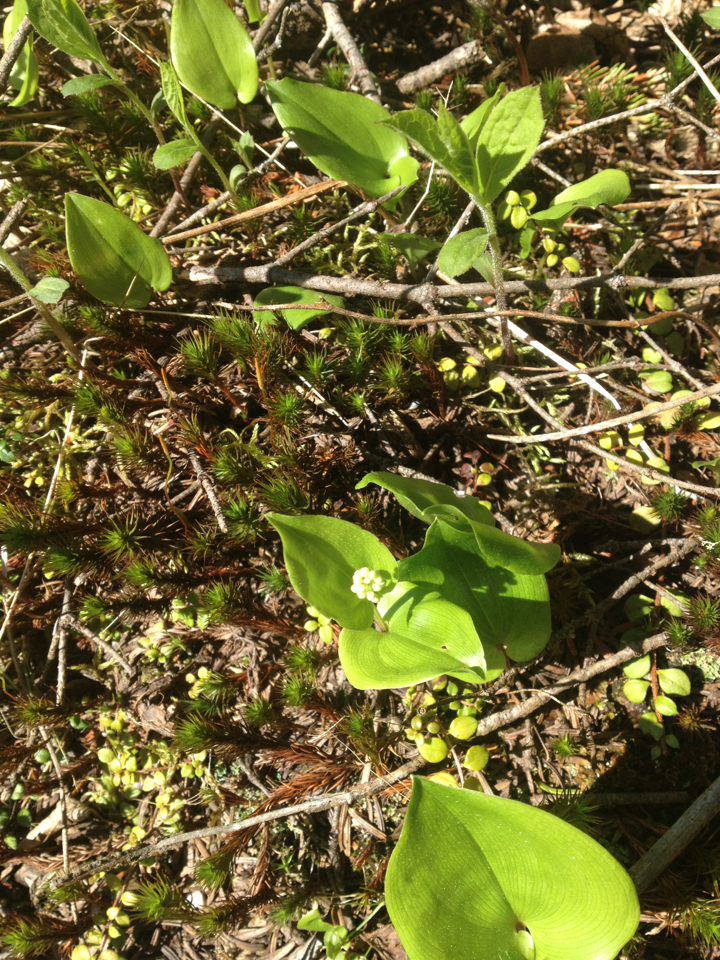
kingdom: Plantae
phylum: Tracheophyta
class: Liliopsida
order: Asparagales
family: Asparagaceae
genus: Maianthemum
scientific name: Maianthemum canadense
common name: False lily-of-the-valley
